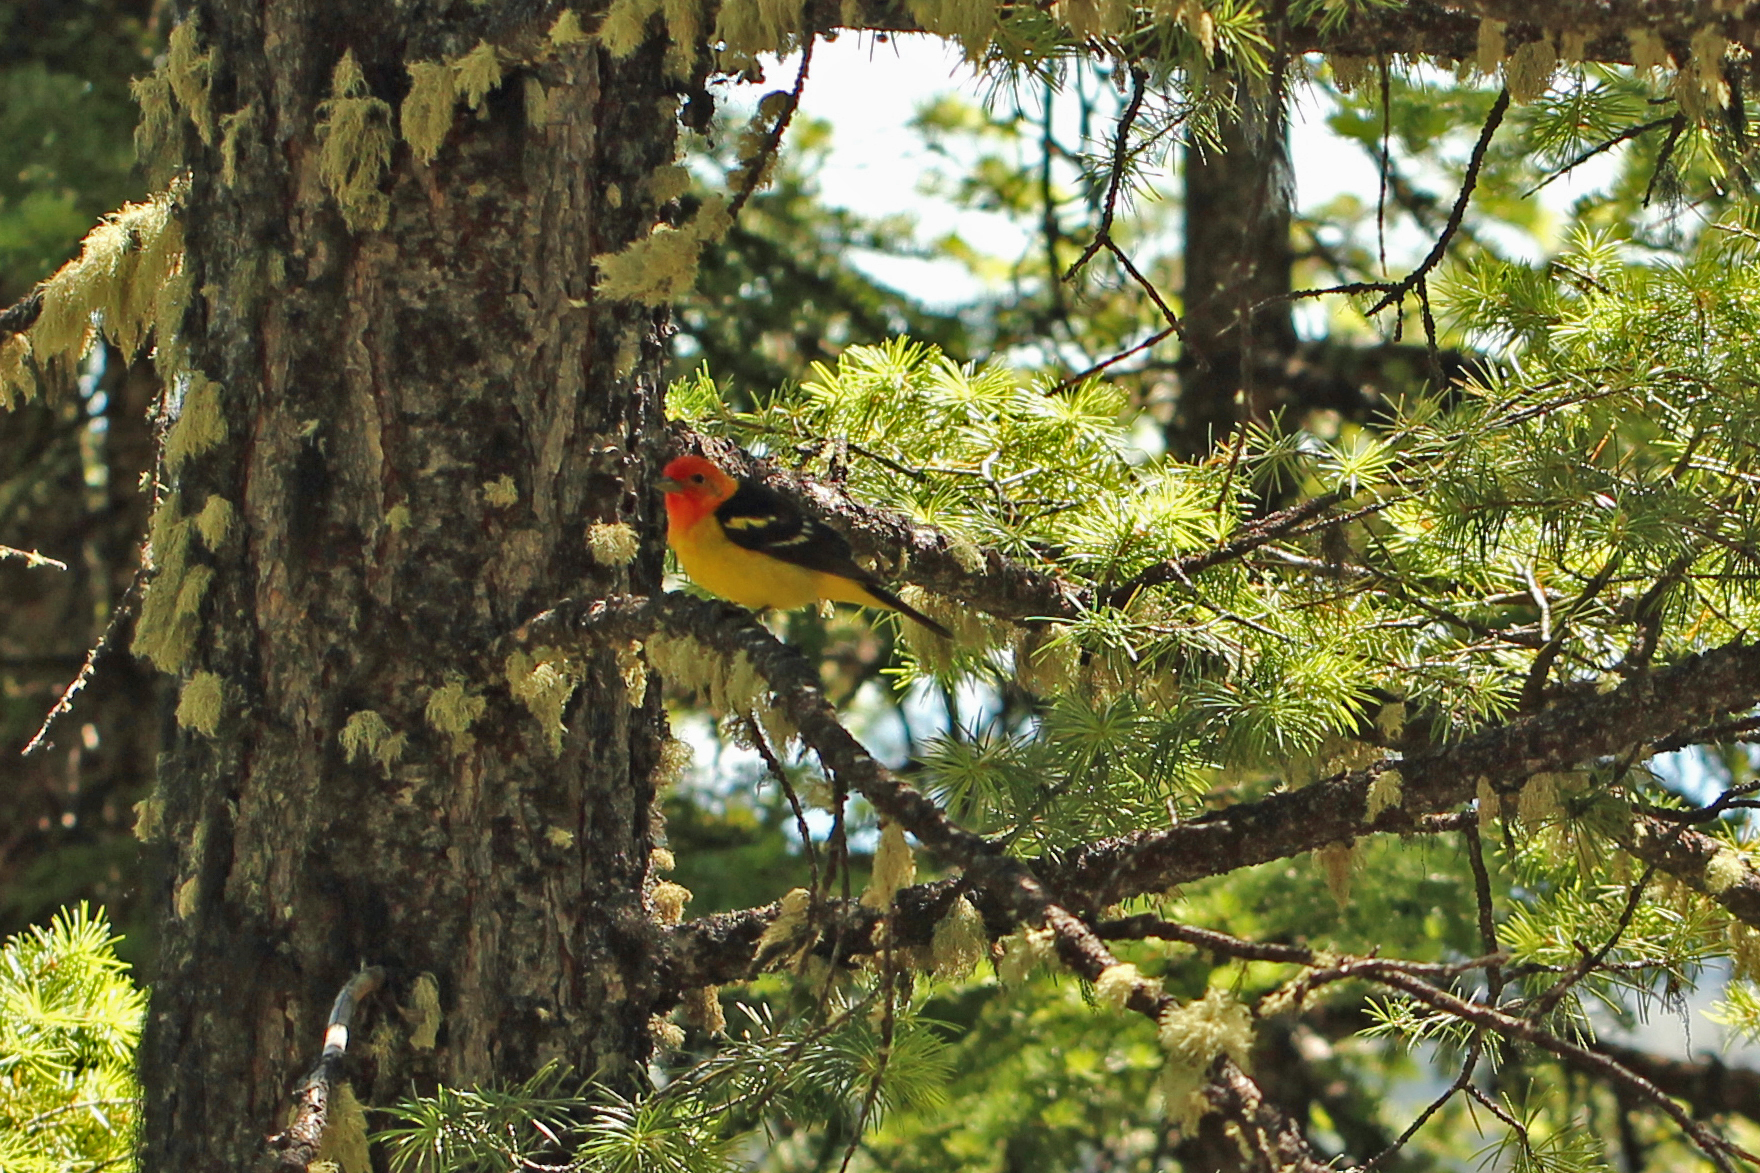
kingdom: Animalia
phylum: Chordata
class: Aves
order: Passeriformes
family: Cardinalidae
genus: Piranga
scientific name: Piranga ludoviciana
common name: Western tanager
